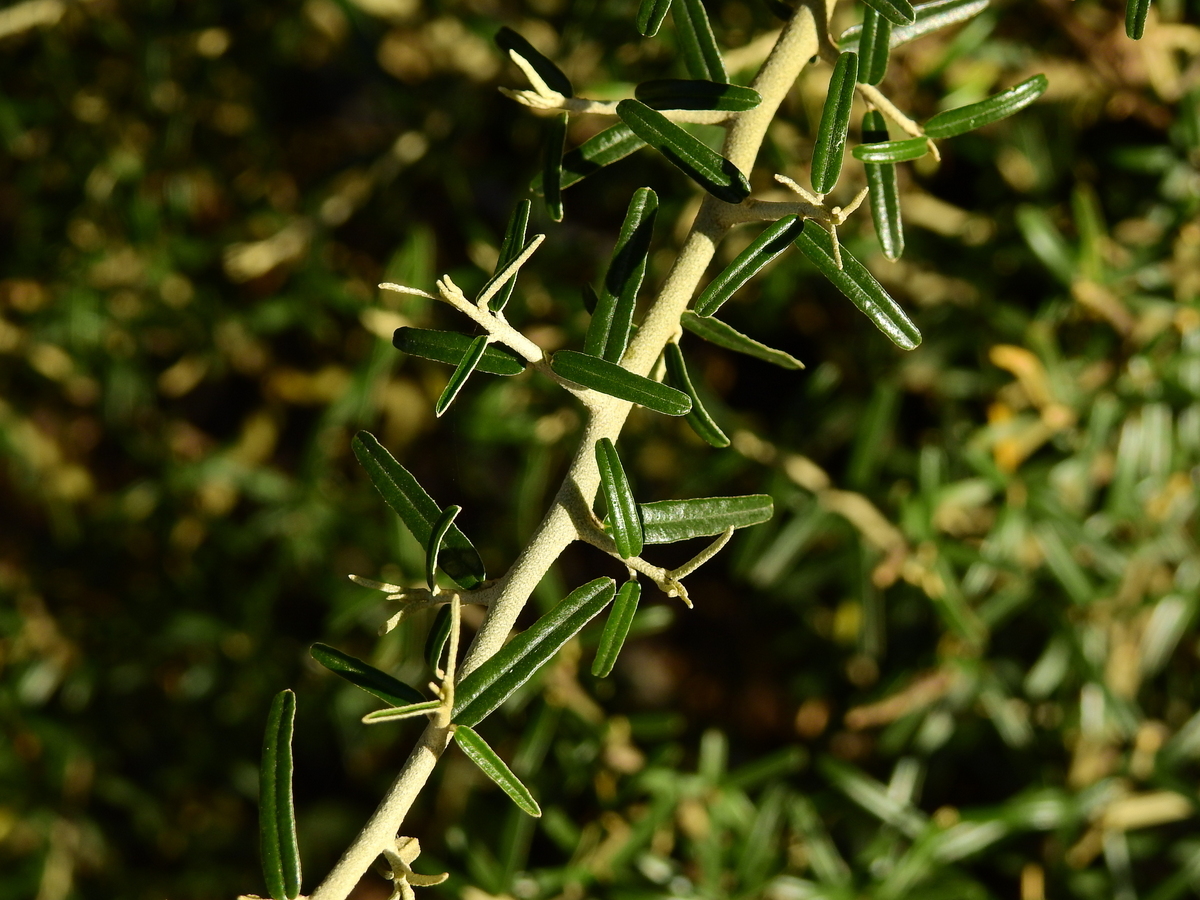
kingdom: Plantae
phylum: Tracheophyta
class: Magnoliopsida
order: Brassicales
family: Capparaceae
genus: Atamisquea
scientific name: Atamisquea emarginata
